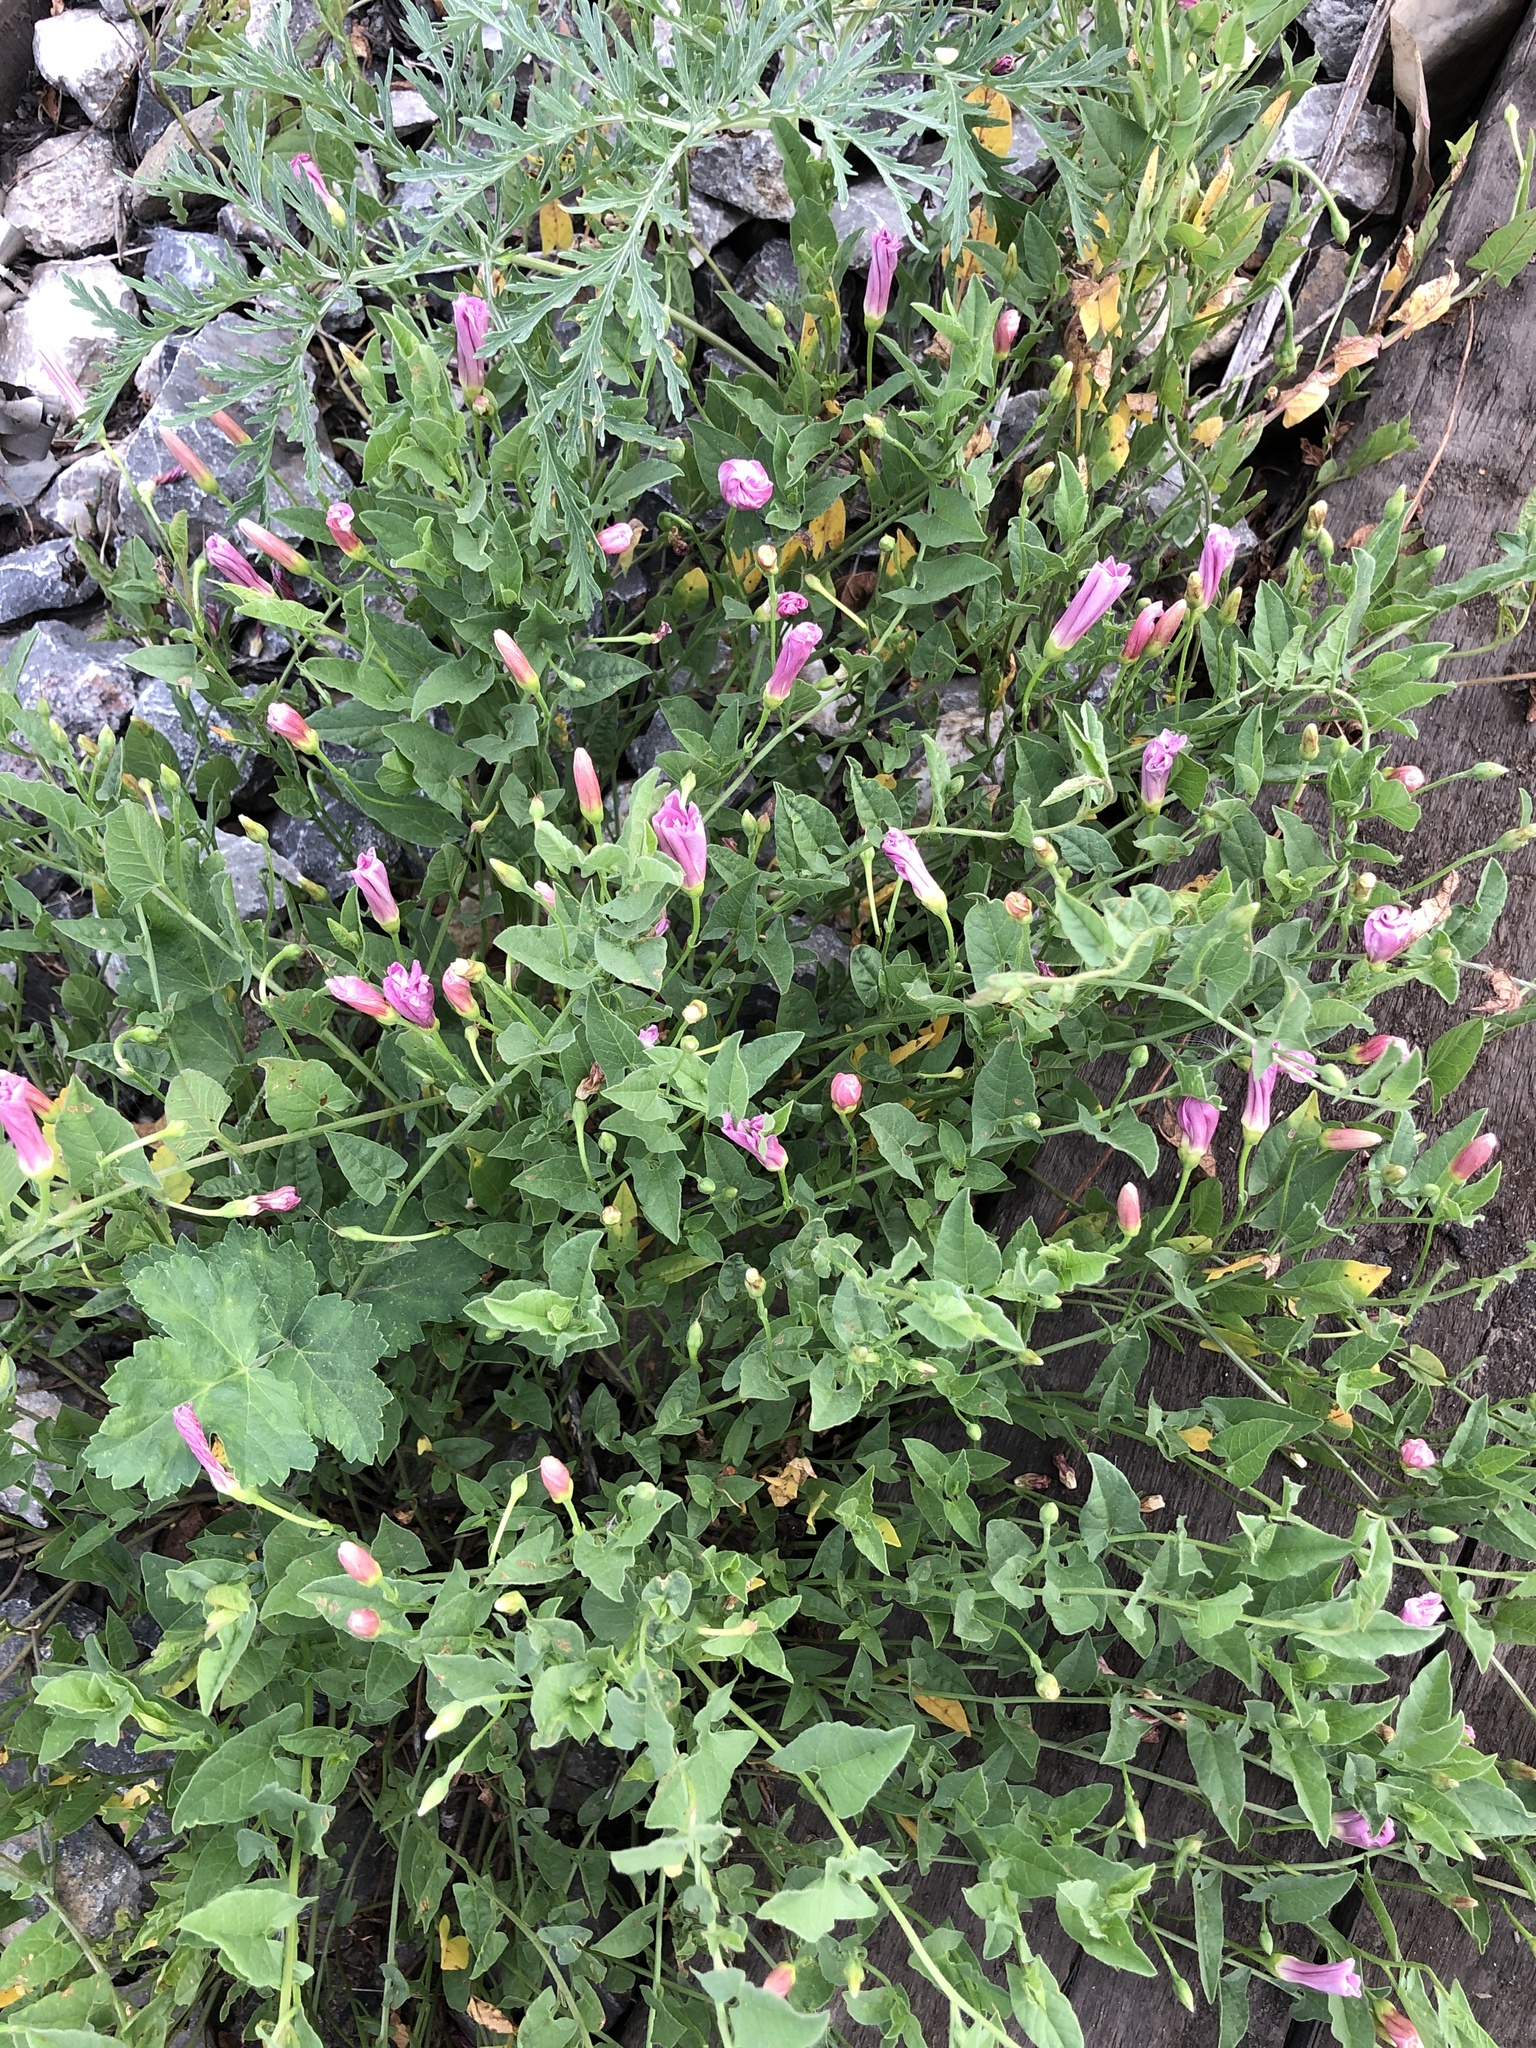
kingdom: Plantae
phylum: Tracheophyta
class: Magnoliopsida
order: Solanales
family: Convolvulaceae
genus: Convolvulus
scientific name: Convolvulus arvensis
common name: Field bindweed
